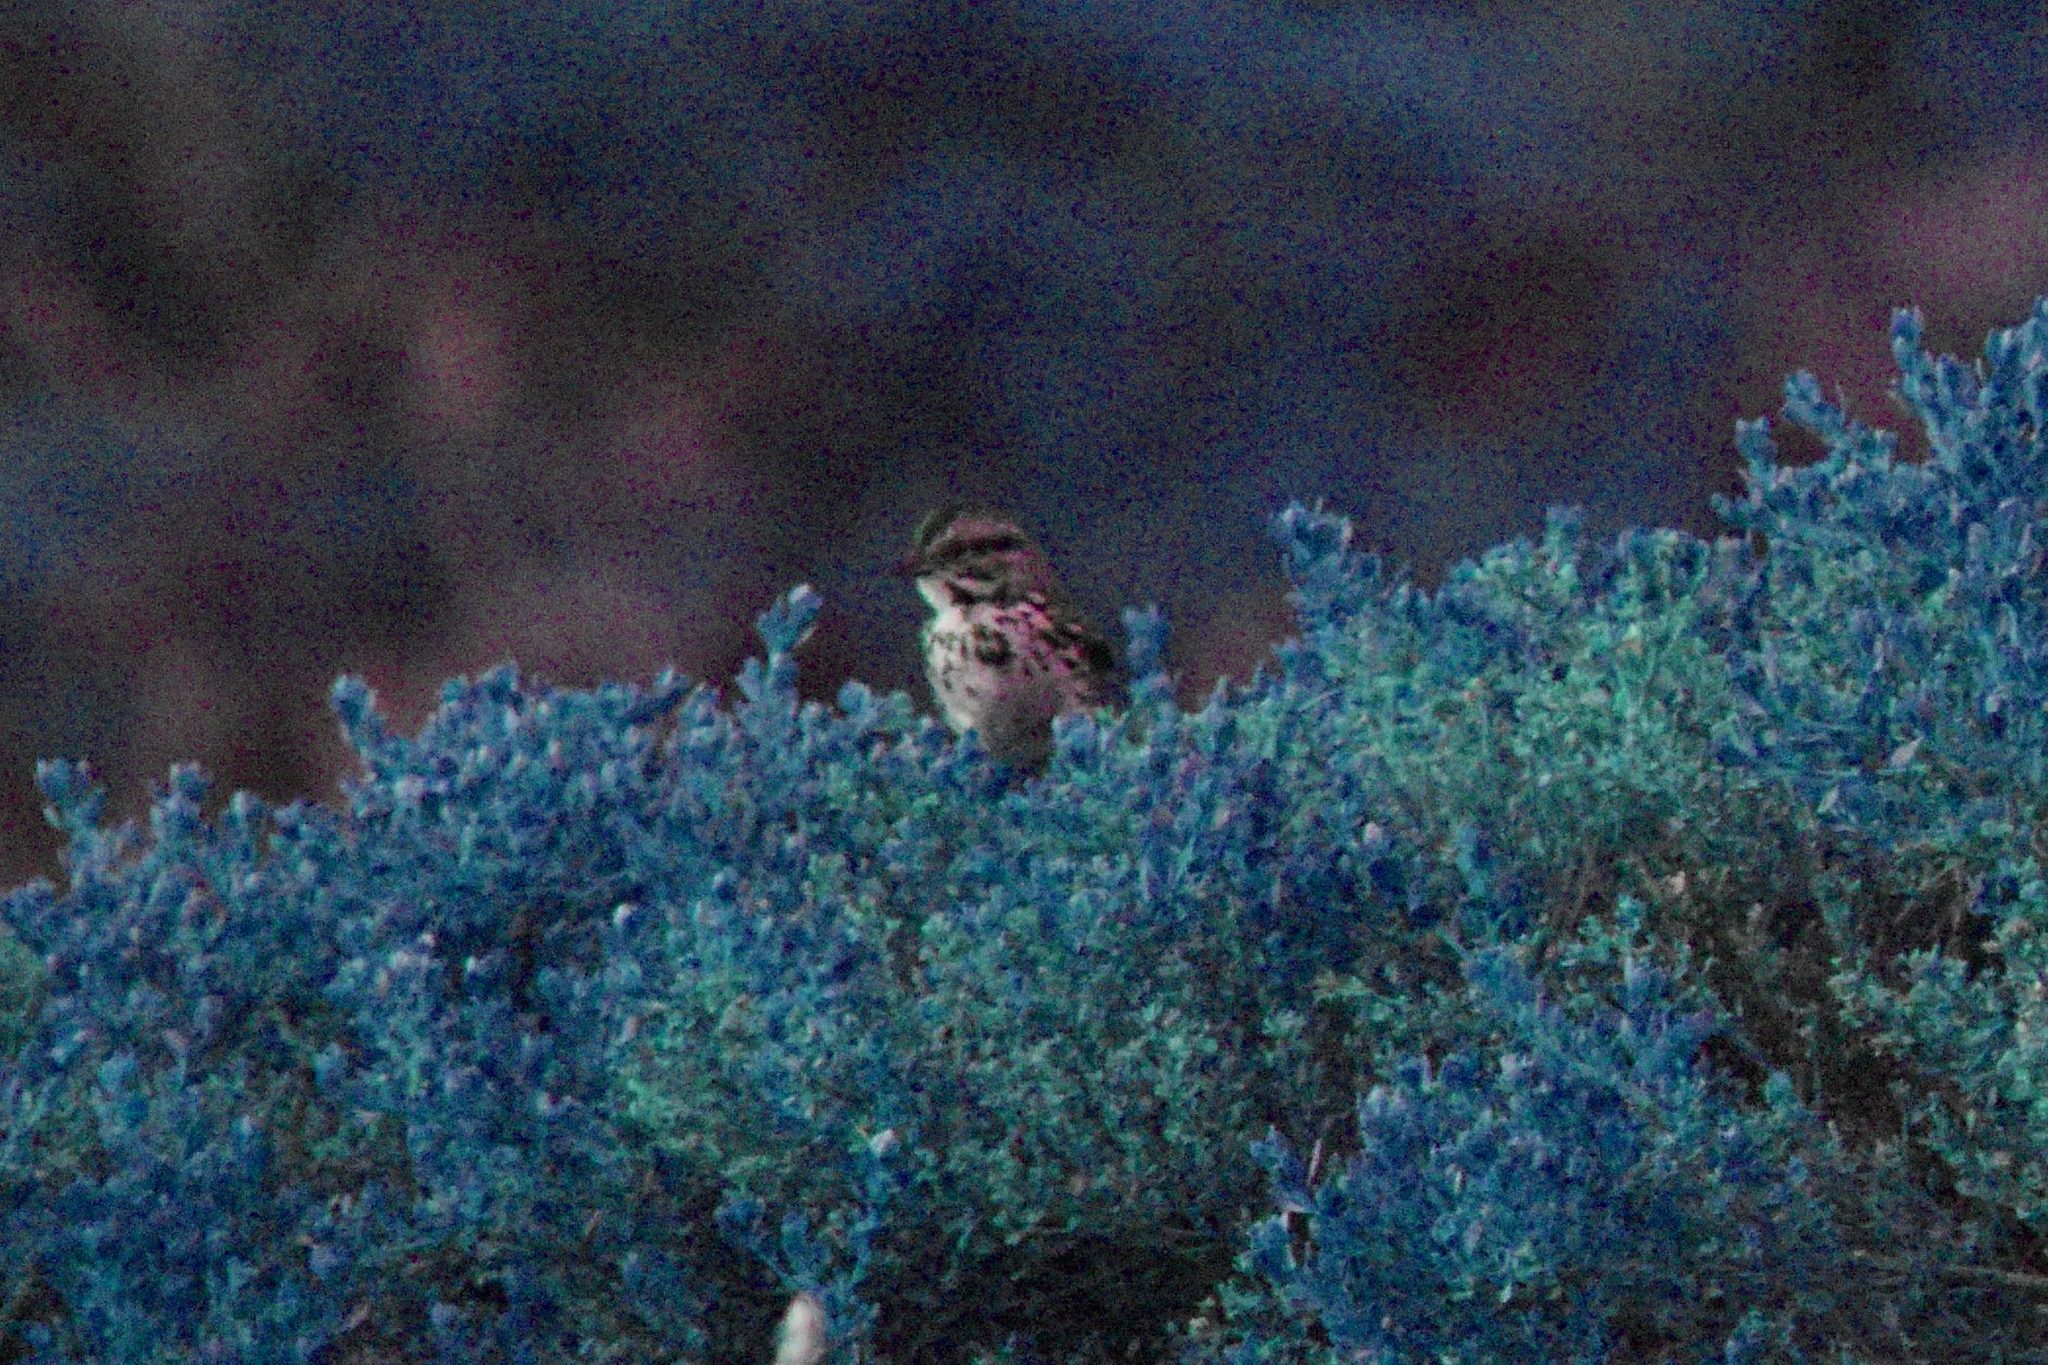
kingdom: Animalia
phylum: Chordata
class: Aves
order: Passeriformes
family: Passerellidae
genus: Melospiza
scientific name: Melospiza melodia
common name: Song sparrow
